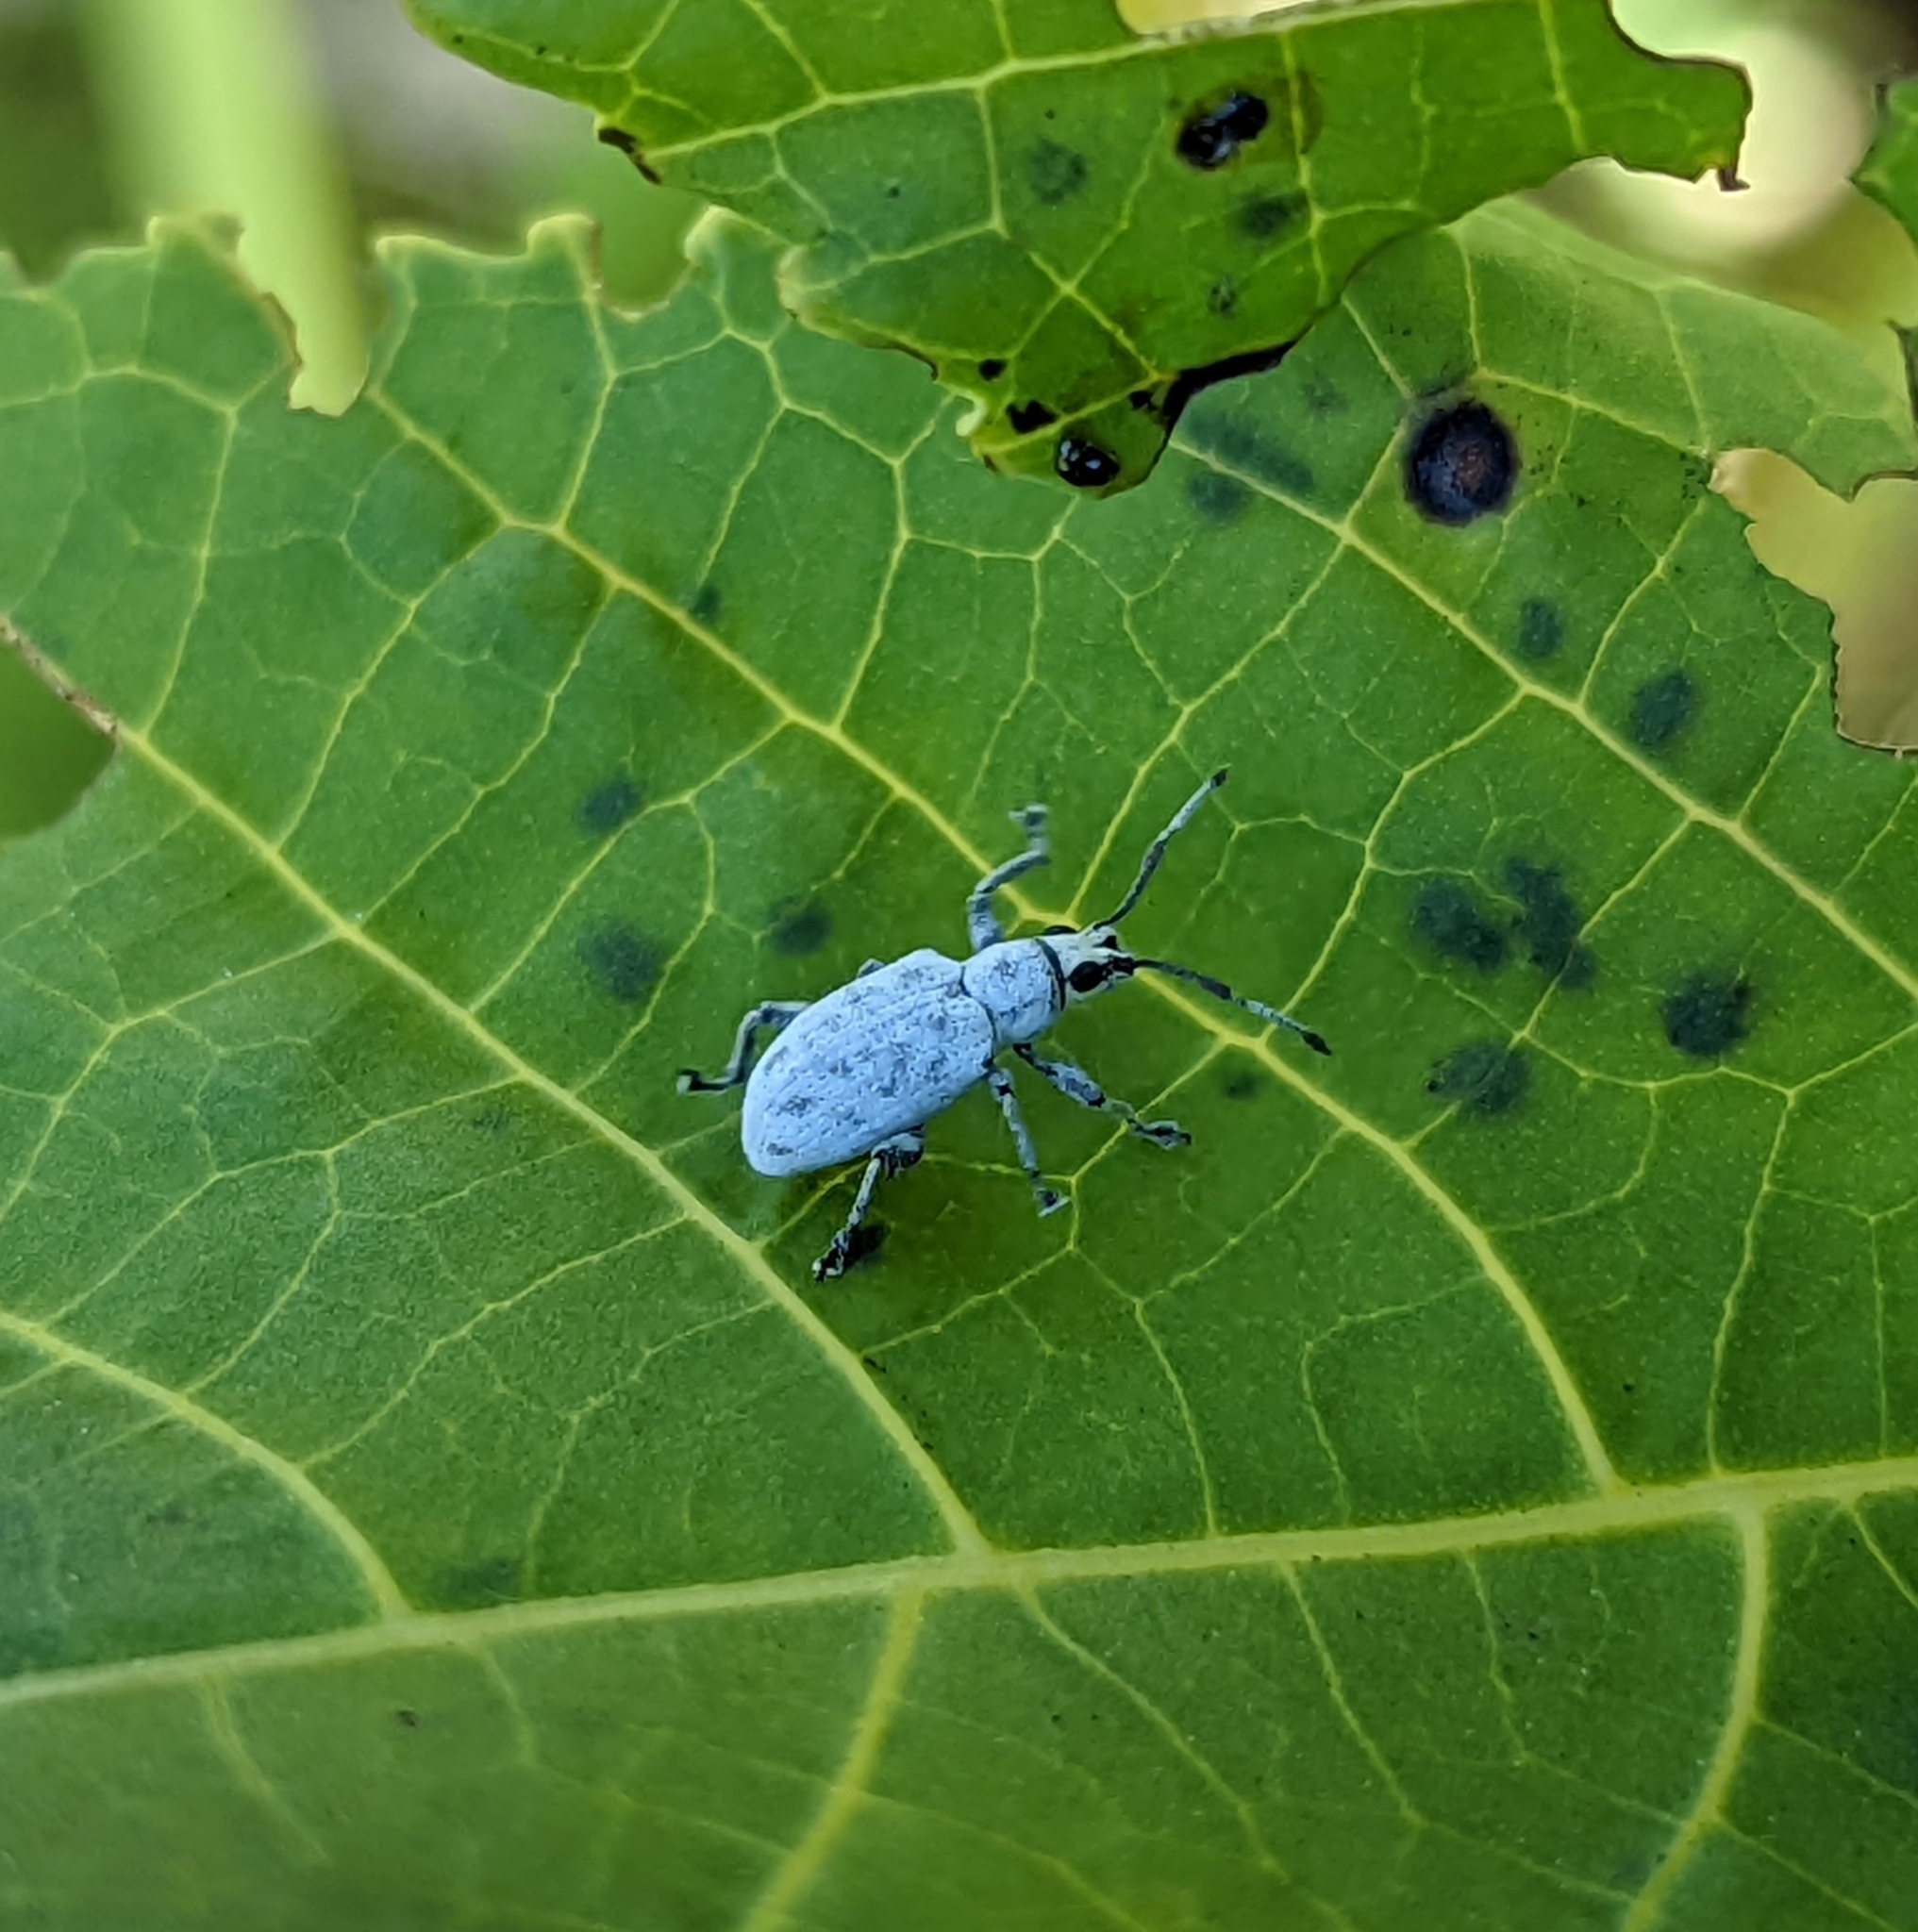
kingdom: Animalia
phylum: Arthropoda
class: Insecta
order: Coleoptera
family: Curculionidae
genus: Myllocerus
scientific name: Myllocerus undecimpustulatus
